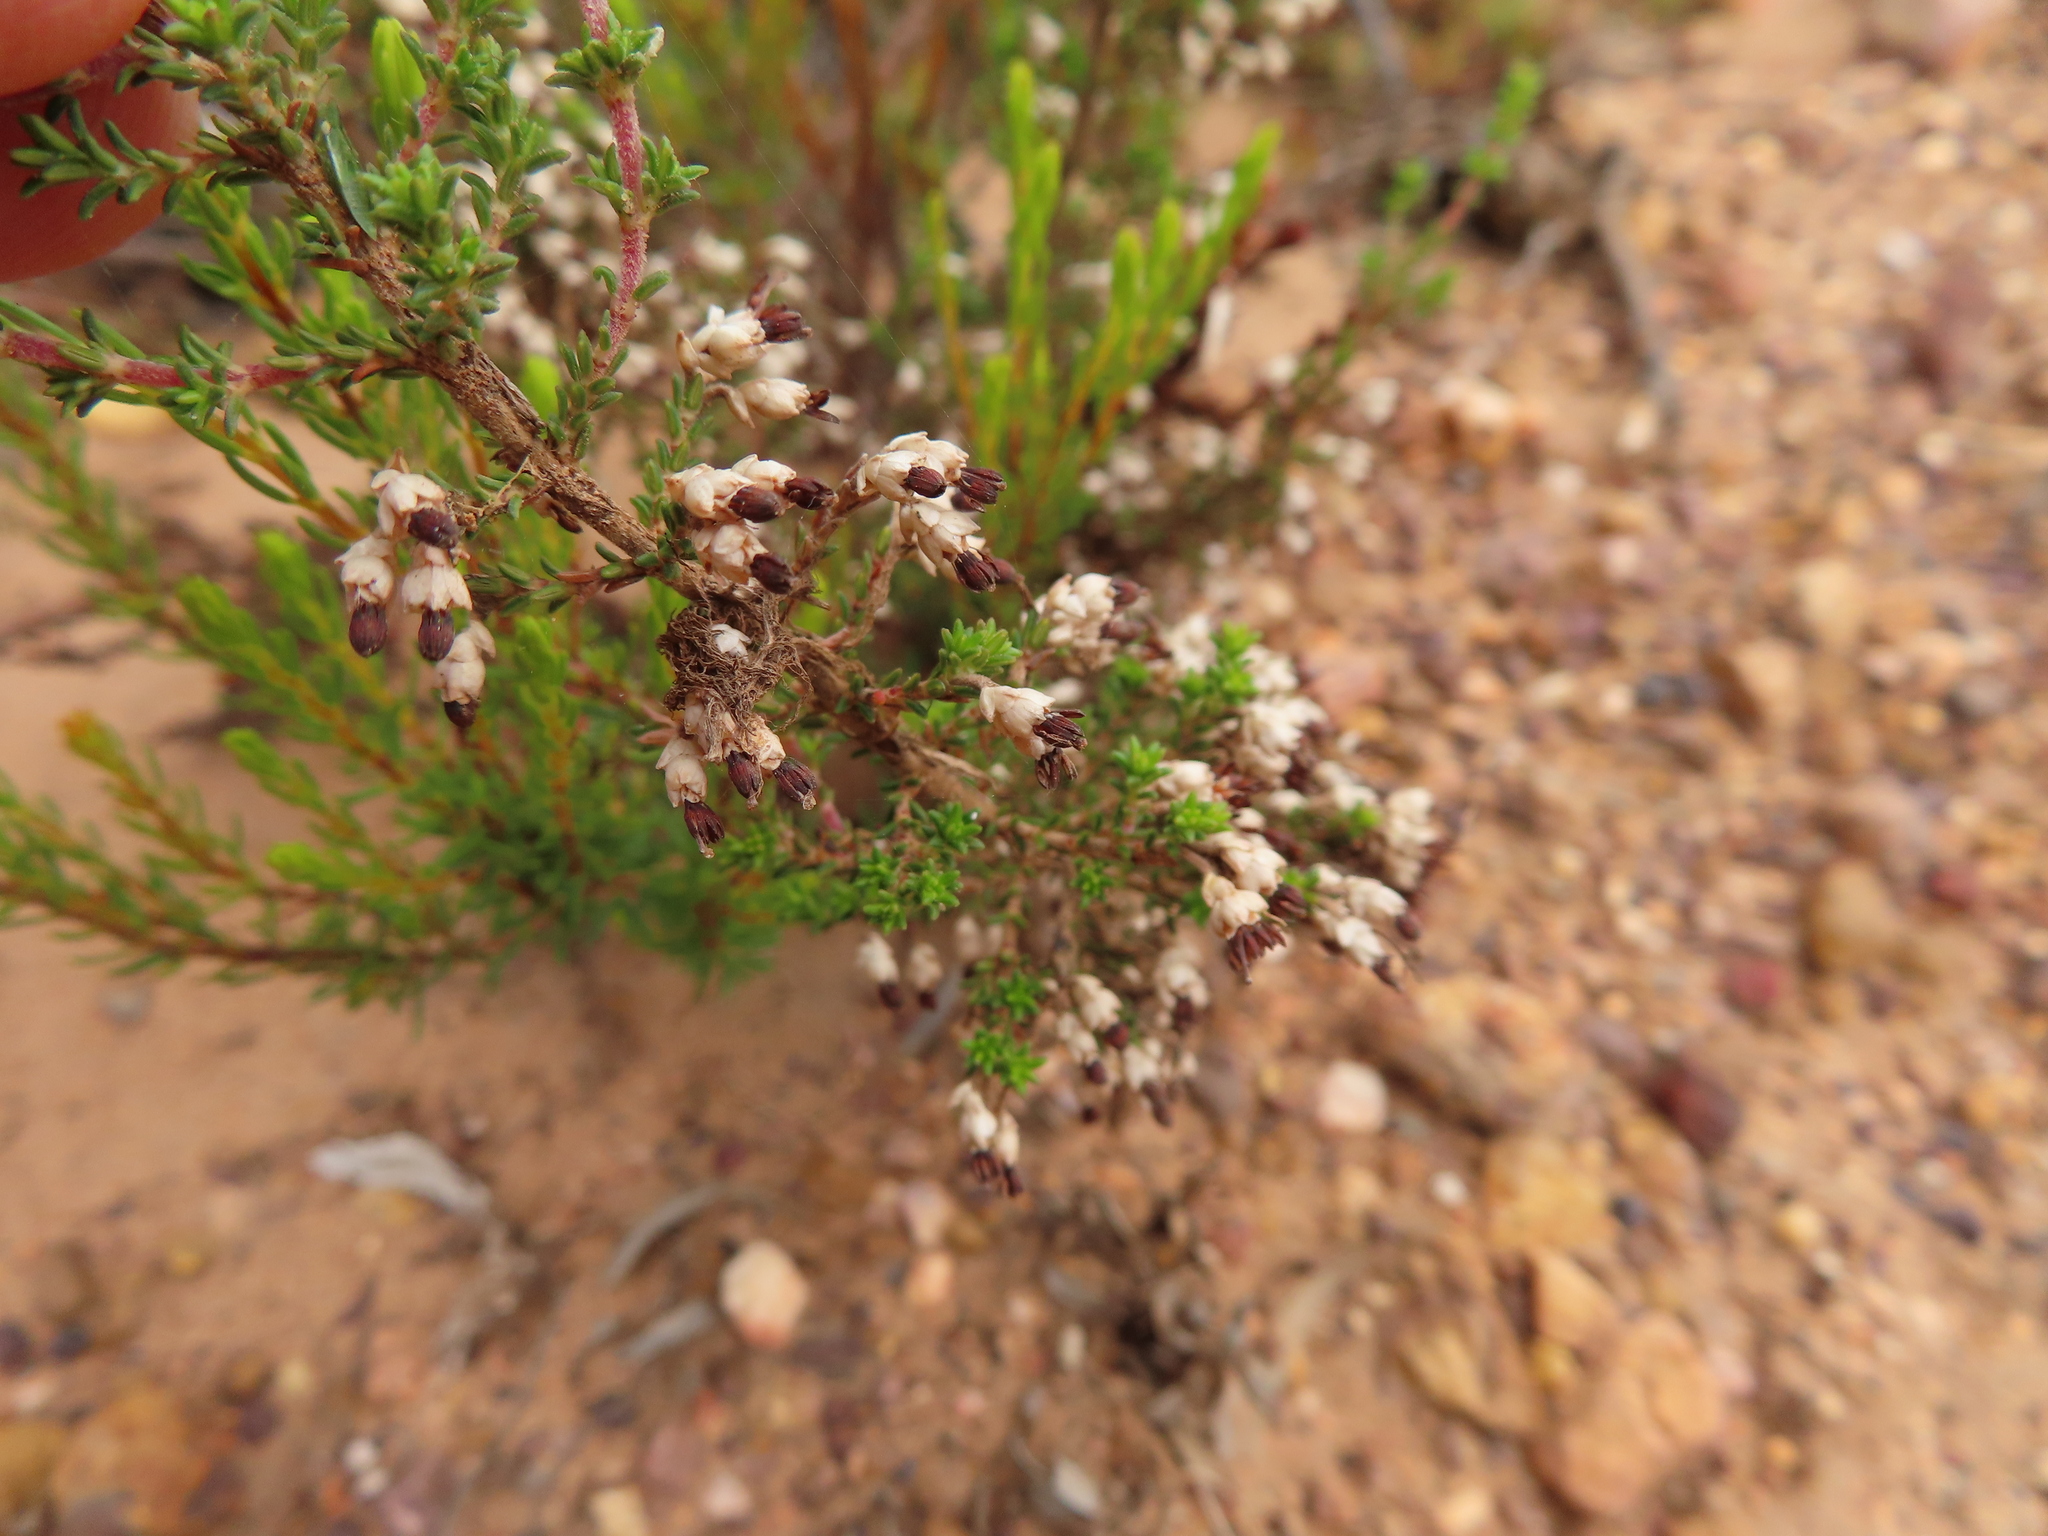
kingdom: Plantae
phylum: Tracheophyta
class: Magnoliopsida
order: Ericales
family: Ericaceae
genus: Erica
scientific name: Erica imbricata
